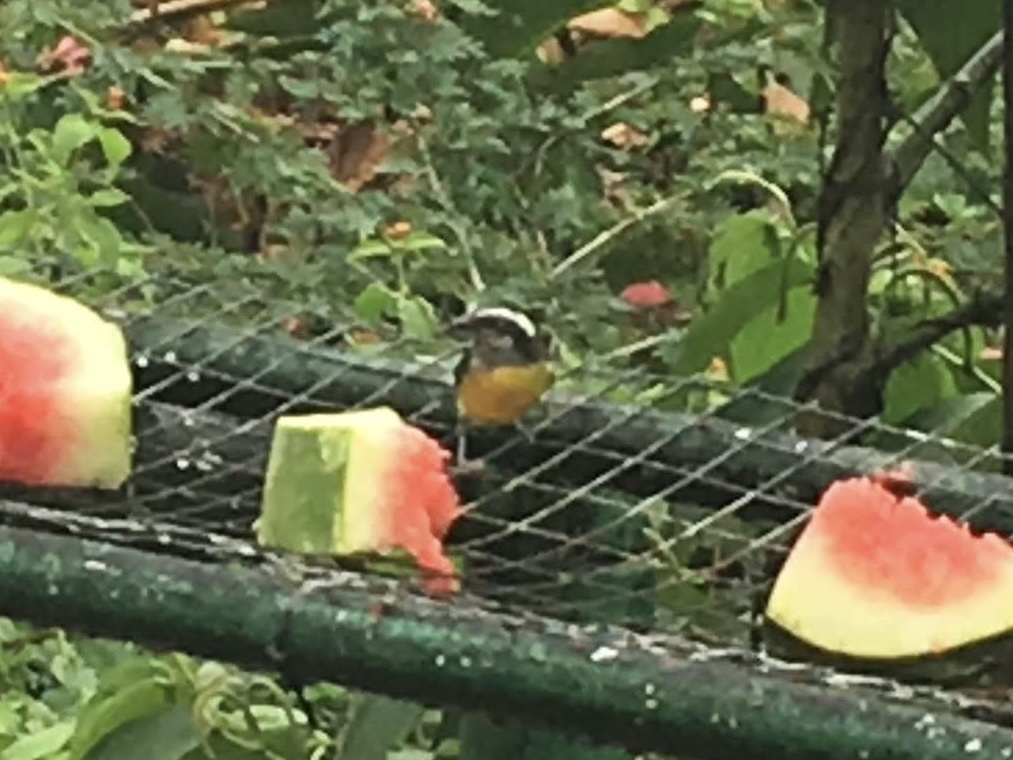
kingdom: Animalia
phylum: Chordata
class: Aves
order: Passeriformes
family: Thraupidae
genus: Coereba
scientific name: Coereba flaveola
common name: Bananaquit
